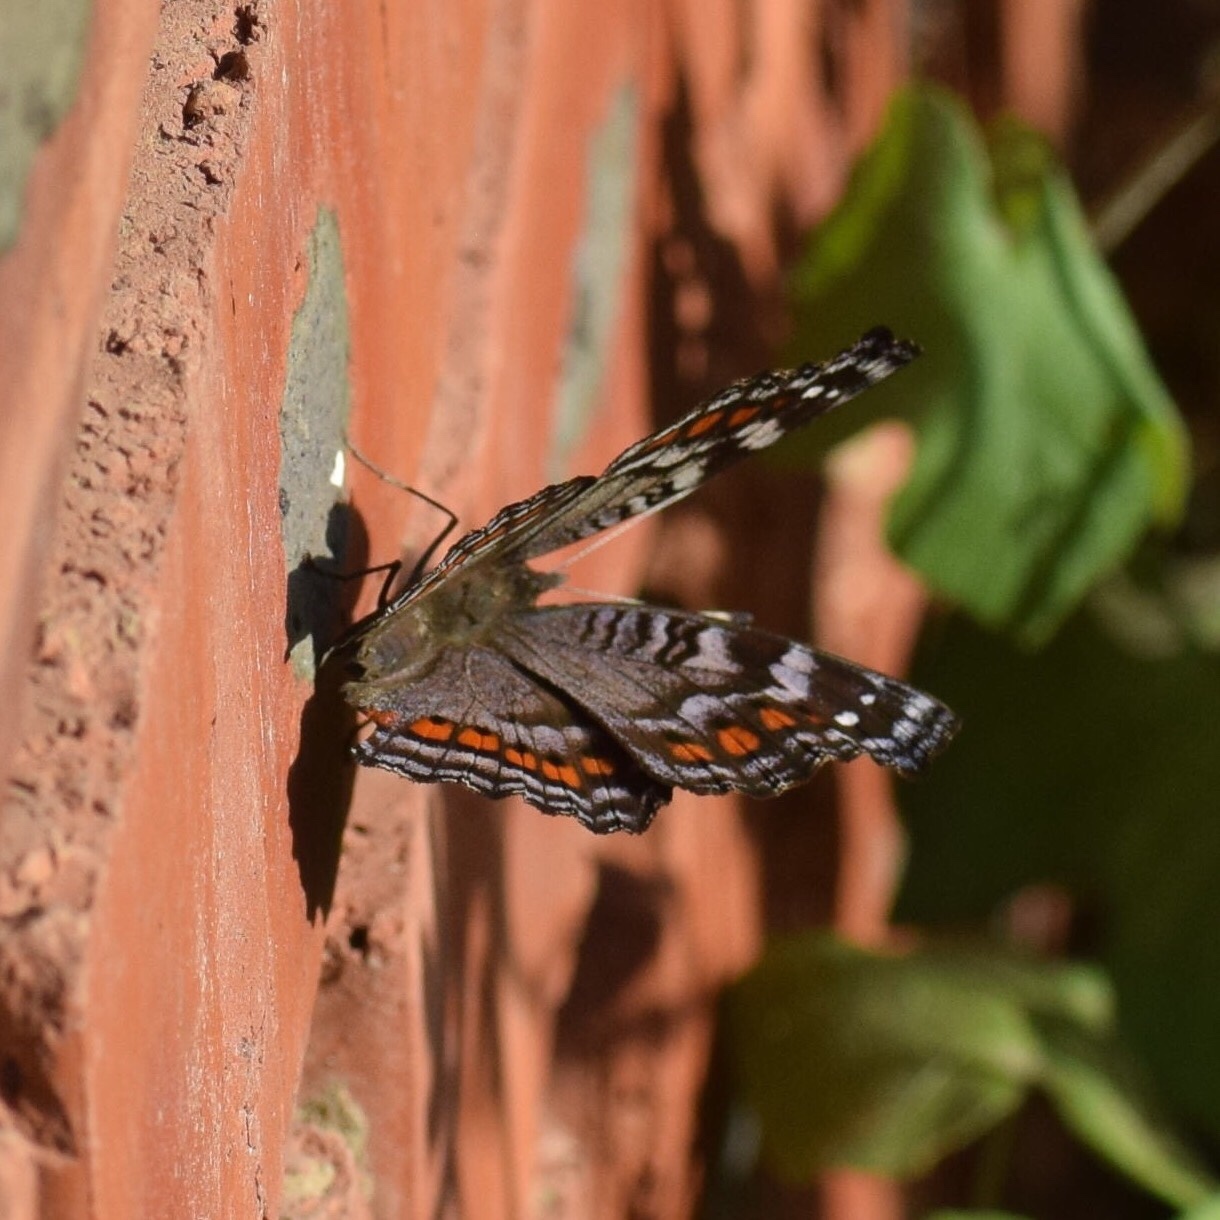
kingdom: Animalia
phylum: Arthropoda
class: Insecta
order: Lepidoptera
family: Nymphalidae
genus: Precis
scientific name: Precis octavia
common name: Gaudy commodore
